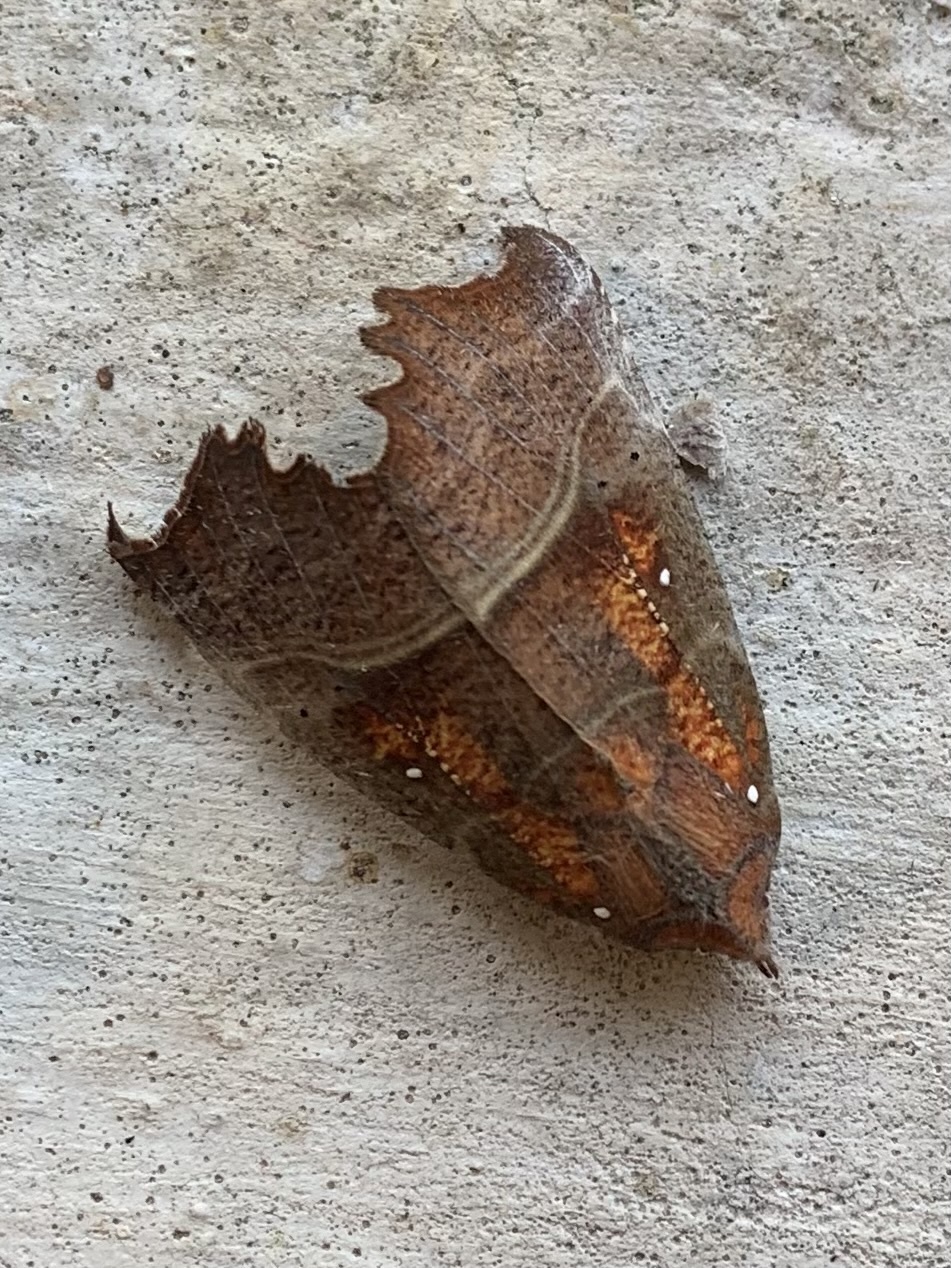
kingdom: Animalia
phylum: Arthropoda
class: Insecta
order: Lepidoptera
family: Erebidae
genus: Scoliopteryx
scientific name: Scoliopteryx libatrix
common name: Herald
